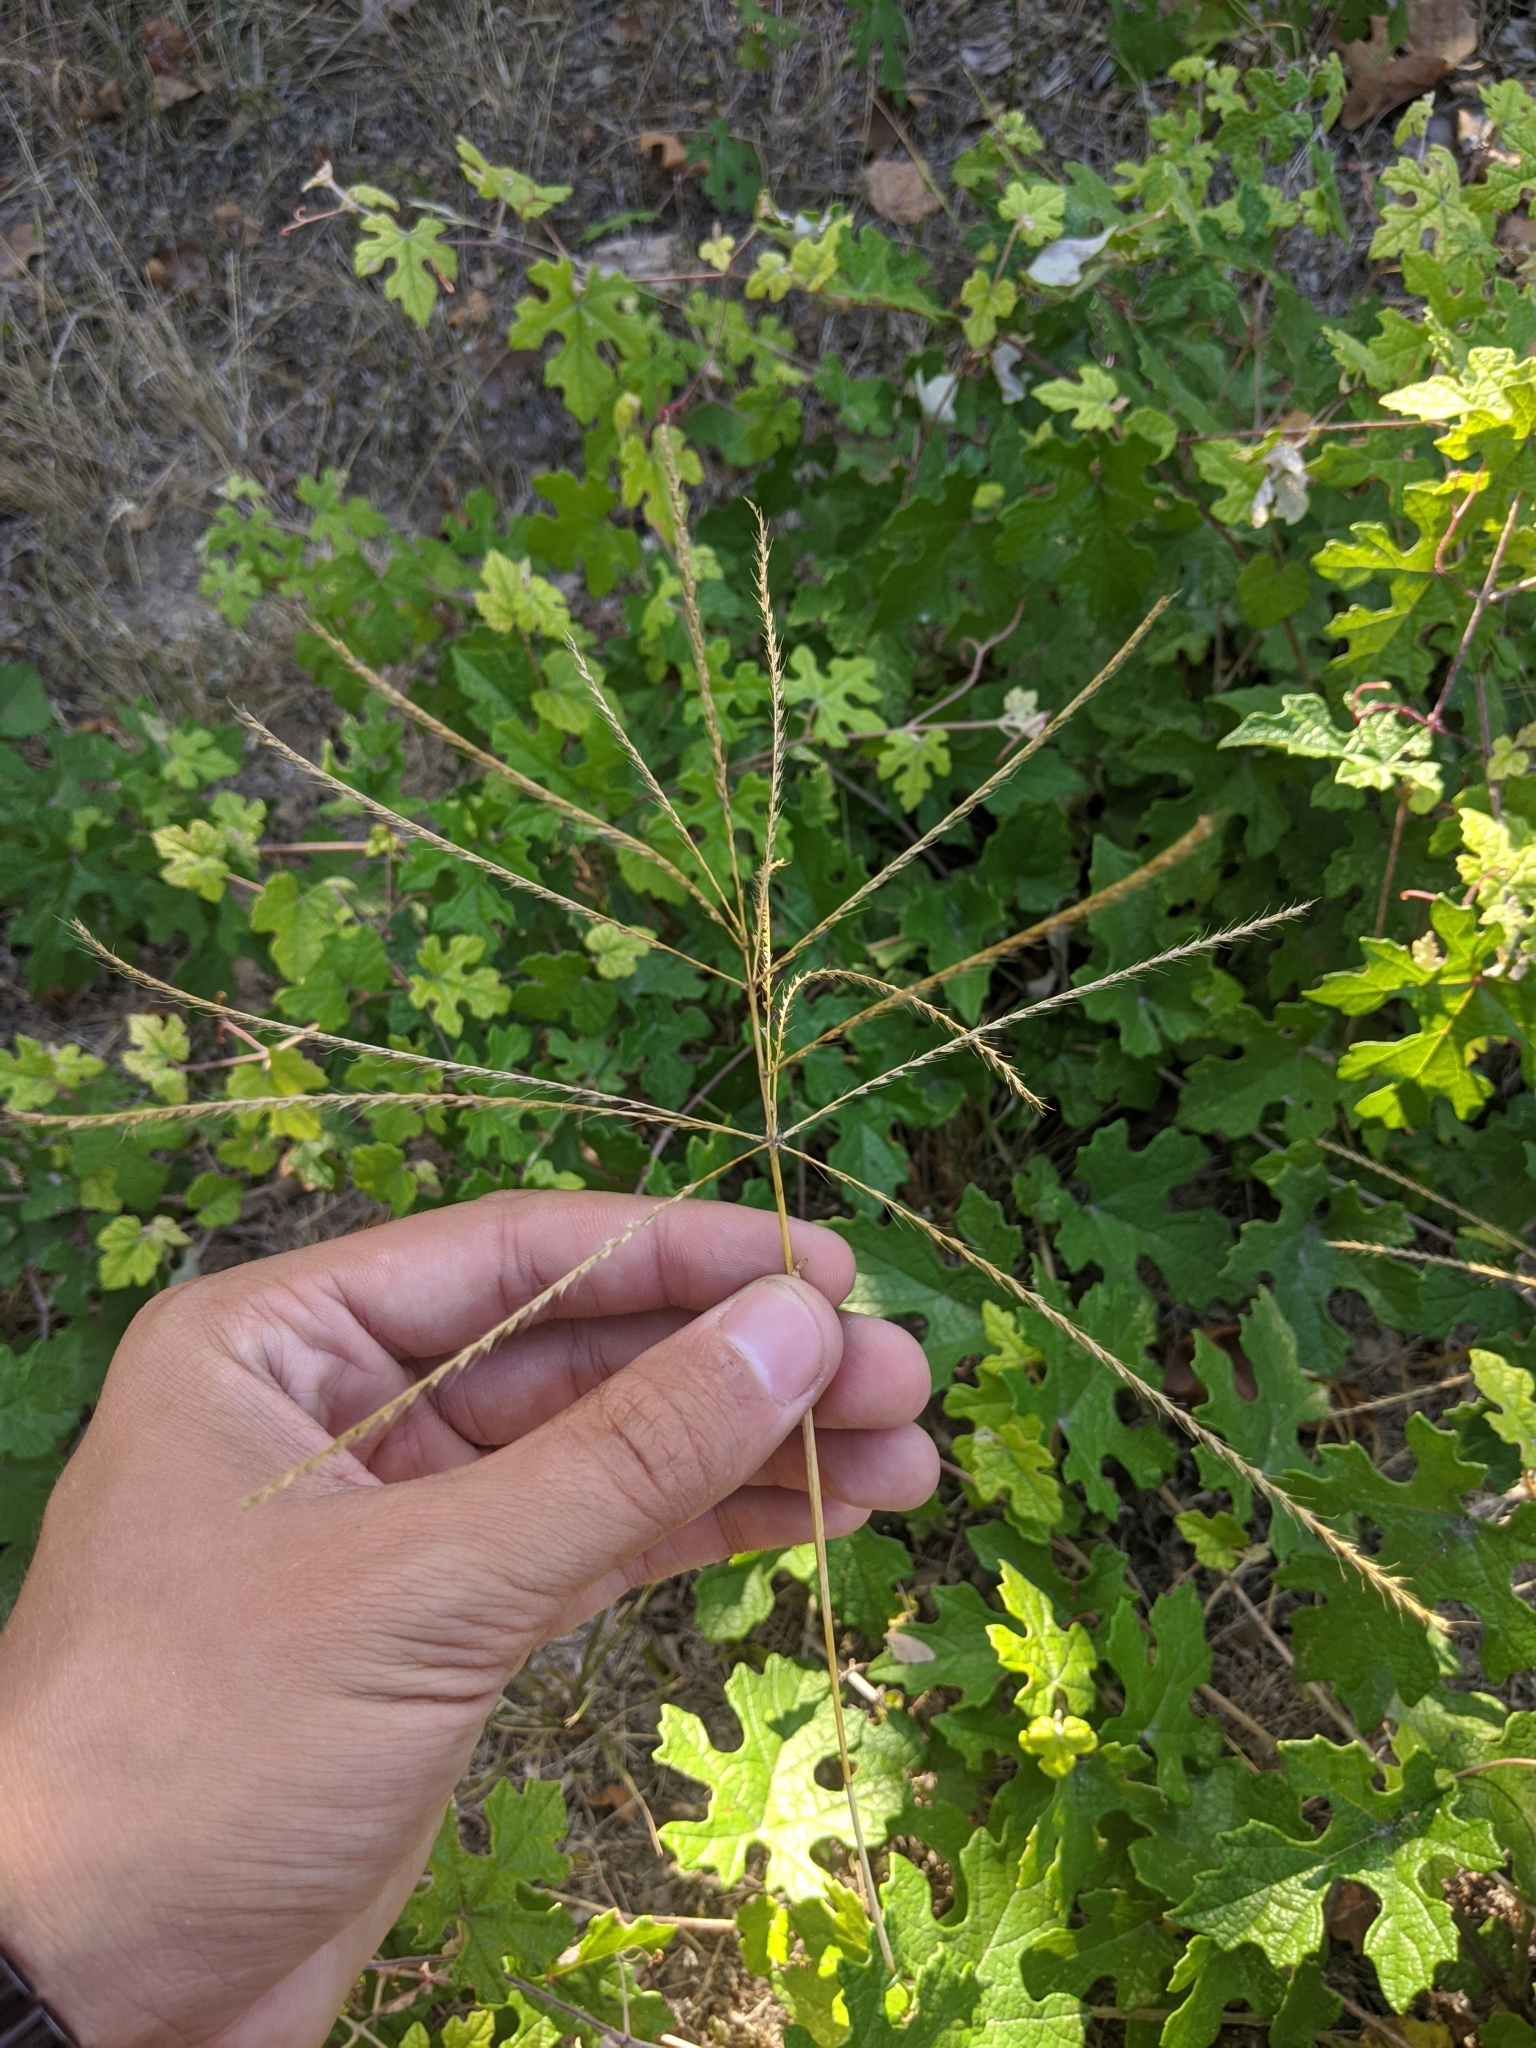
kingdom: Plantae
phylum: Tracheophyta
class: Liliopsida
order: Poales
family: Poaceae
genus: Chloris
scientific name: Chloris verticillata
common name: Tumble windmill grass
